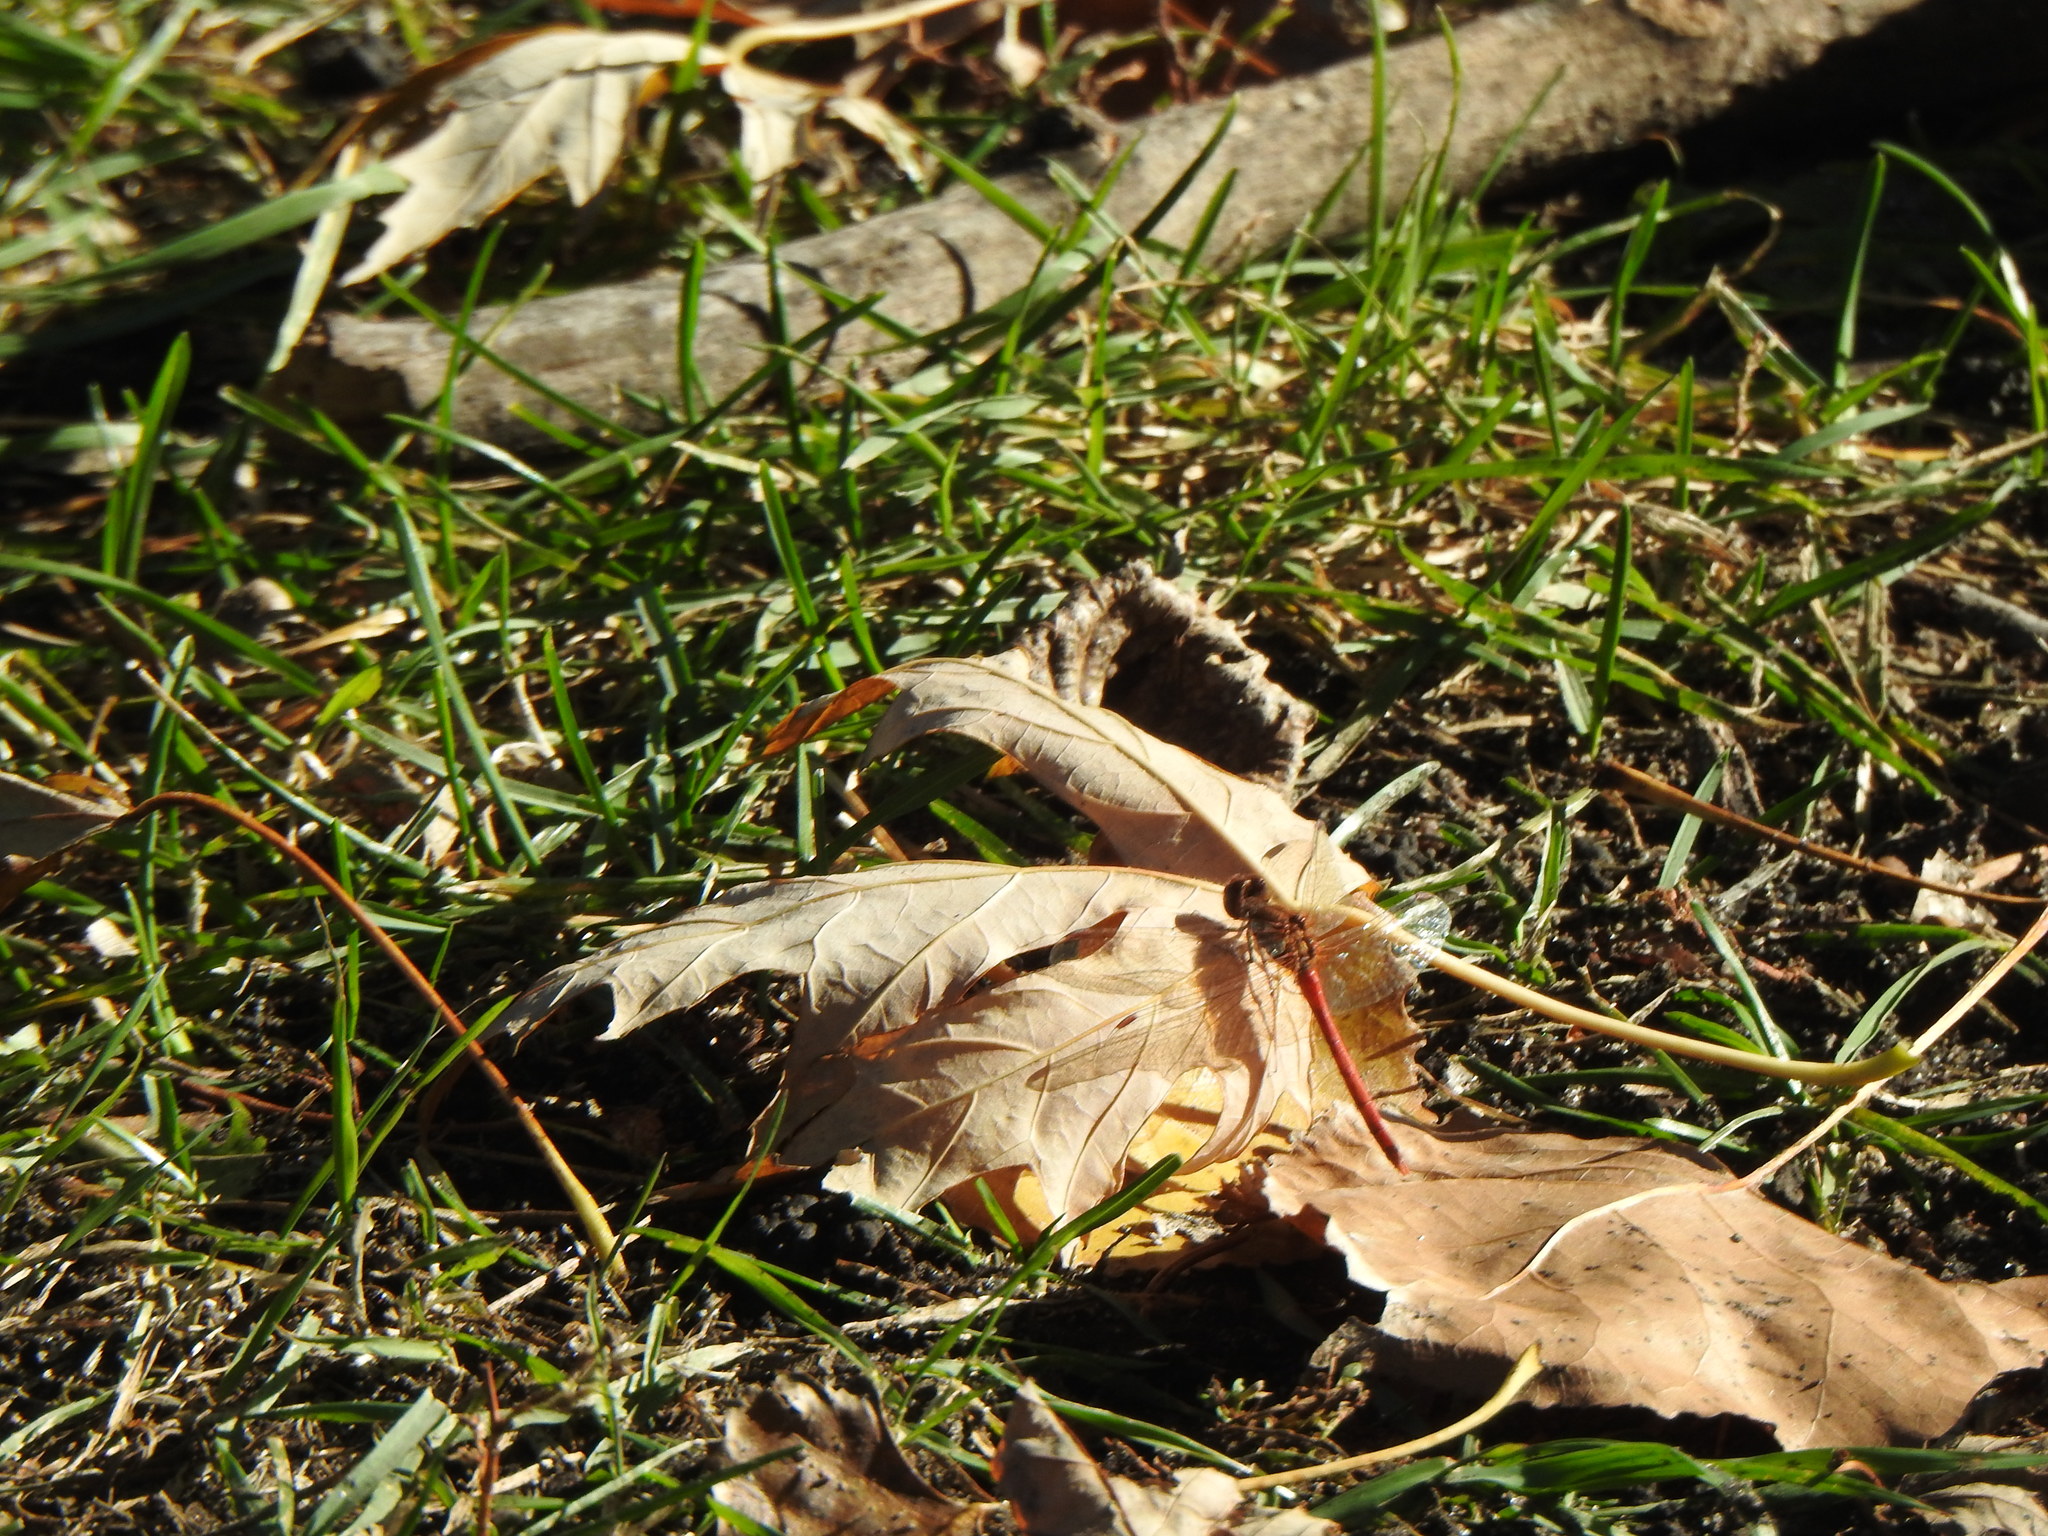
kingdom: Animalia
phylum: Arthropoda
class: Insecta
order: Odonata
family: Libellulidae
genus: Sympetrum
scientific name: Sympetrum vicinum
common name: Autumn meadowhawk
